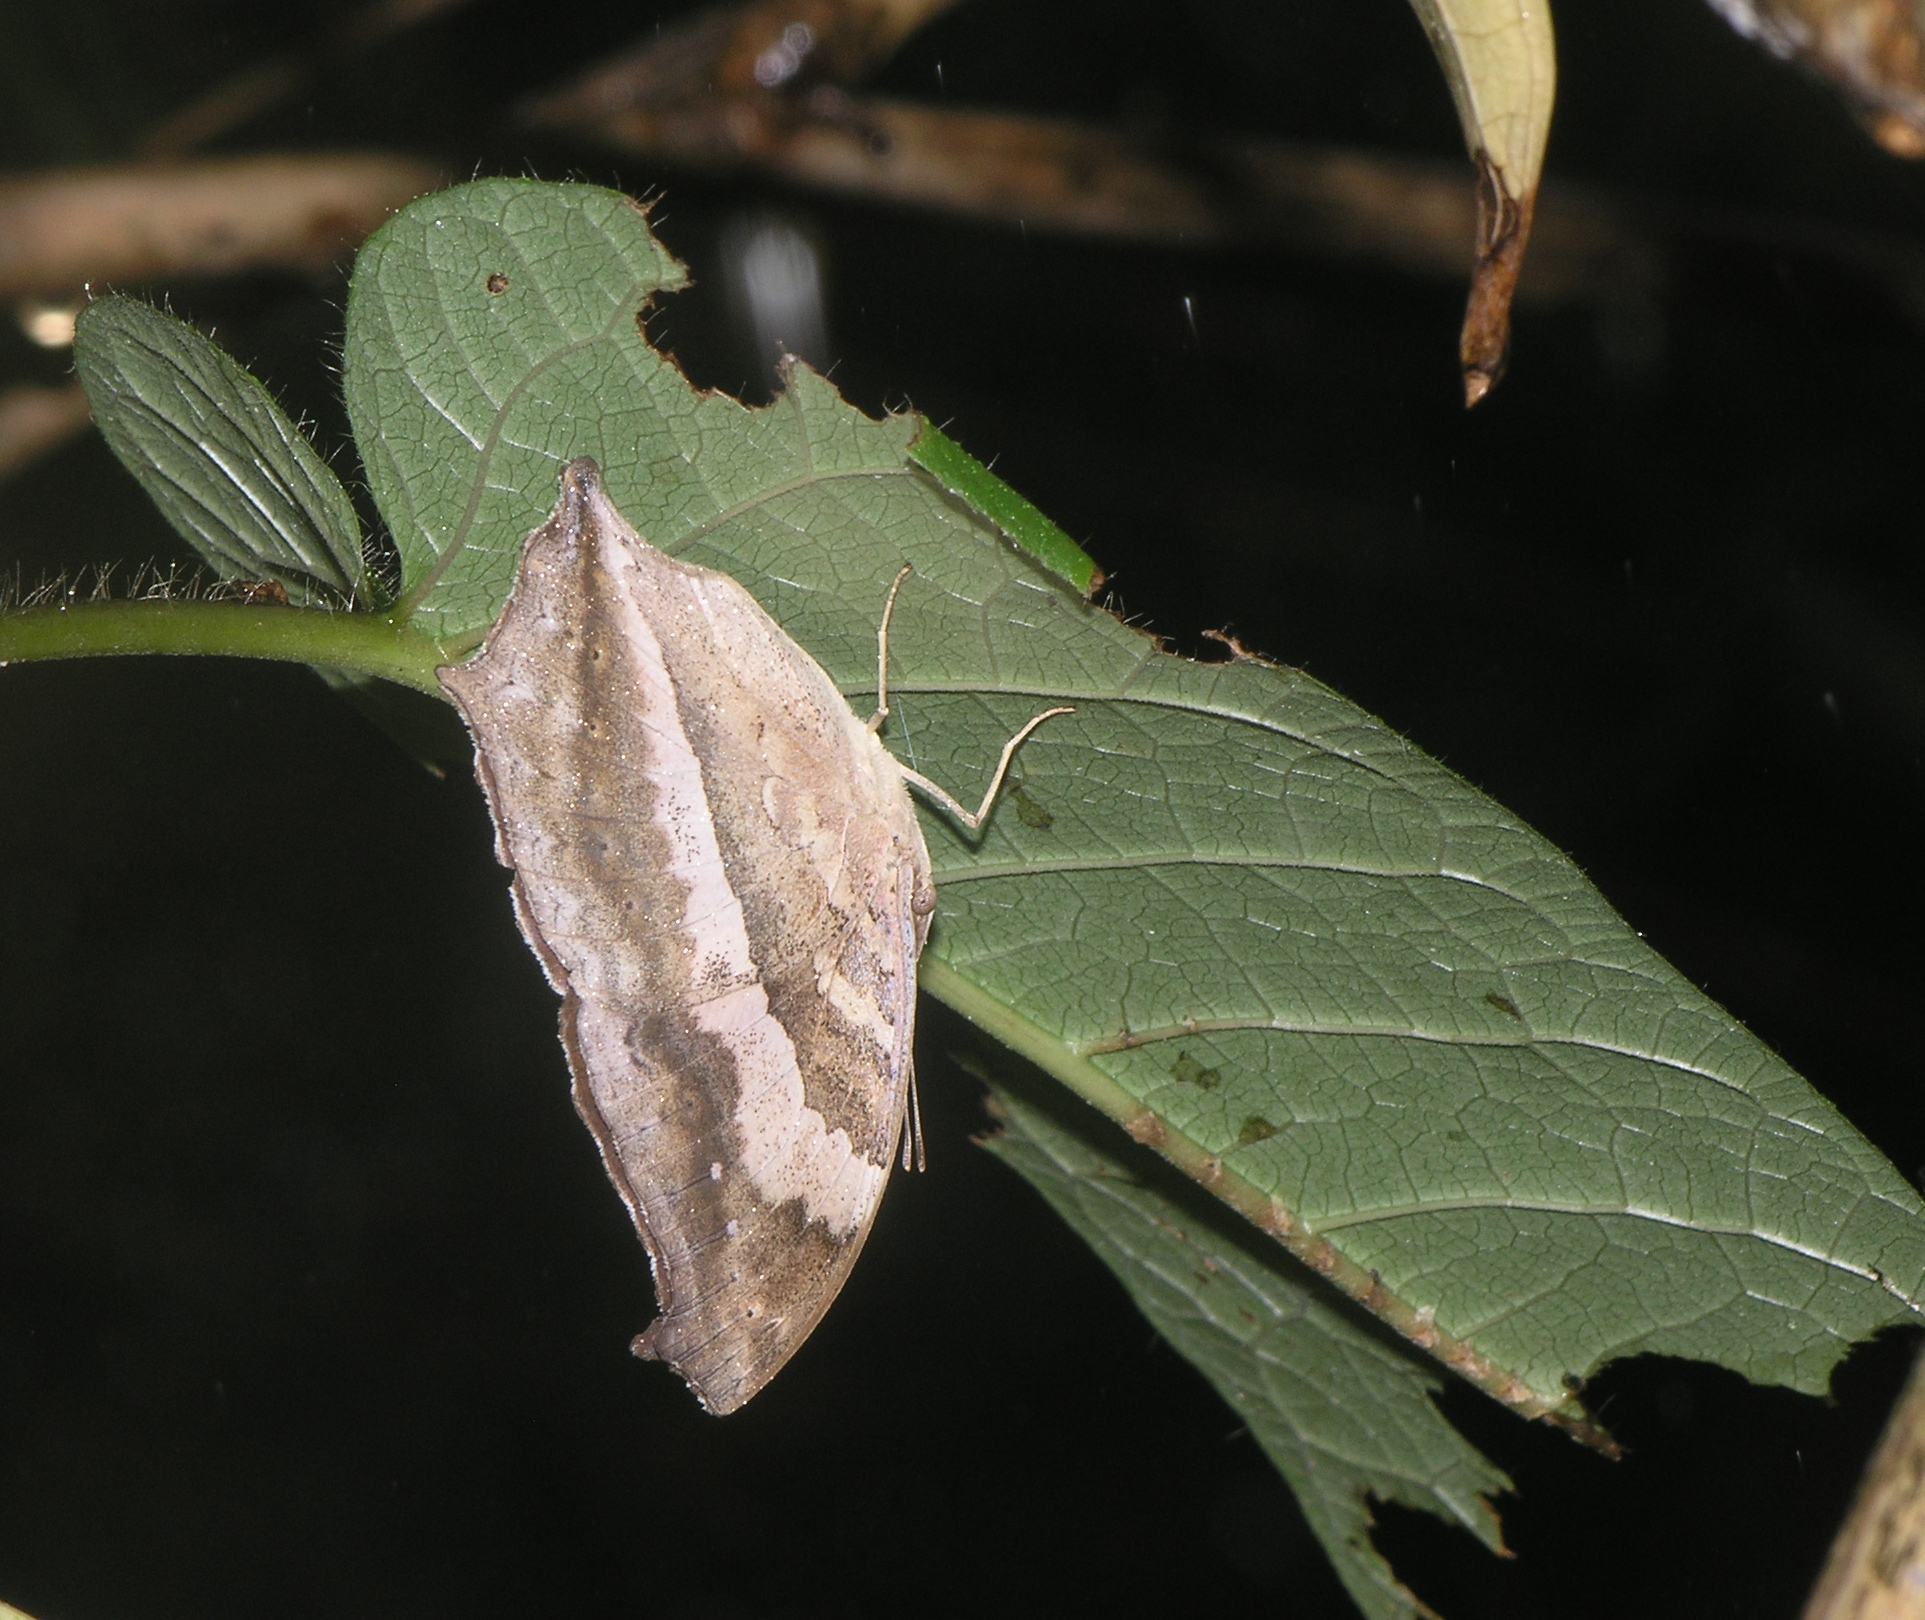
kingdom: Animalia
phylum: Arthropoda
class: Insecta
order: Lepidoptera
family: Nymphalidae
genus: Yoma
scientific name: Yoma sabina
